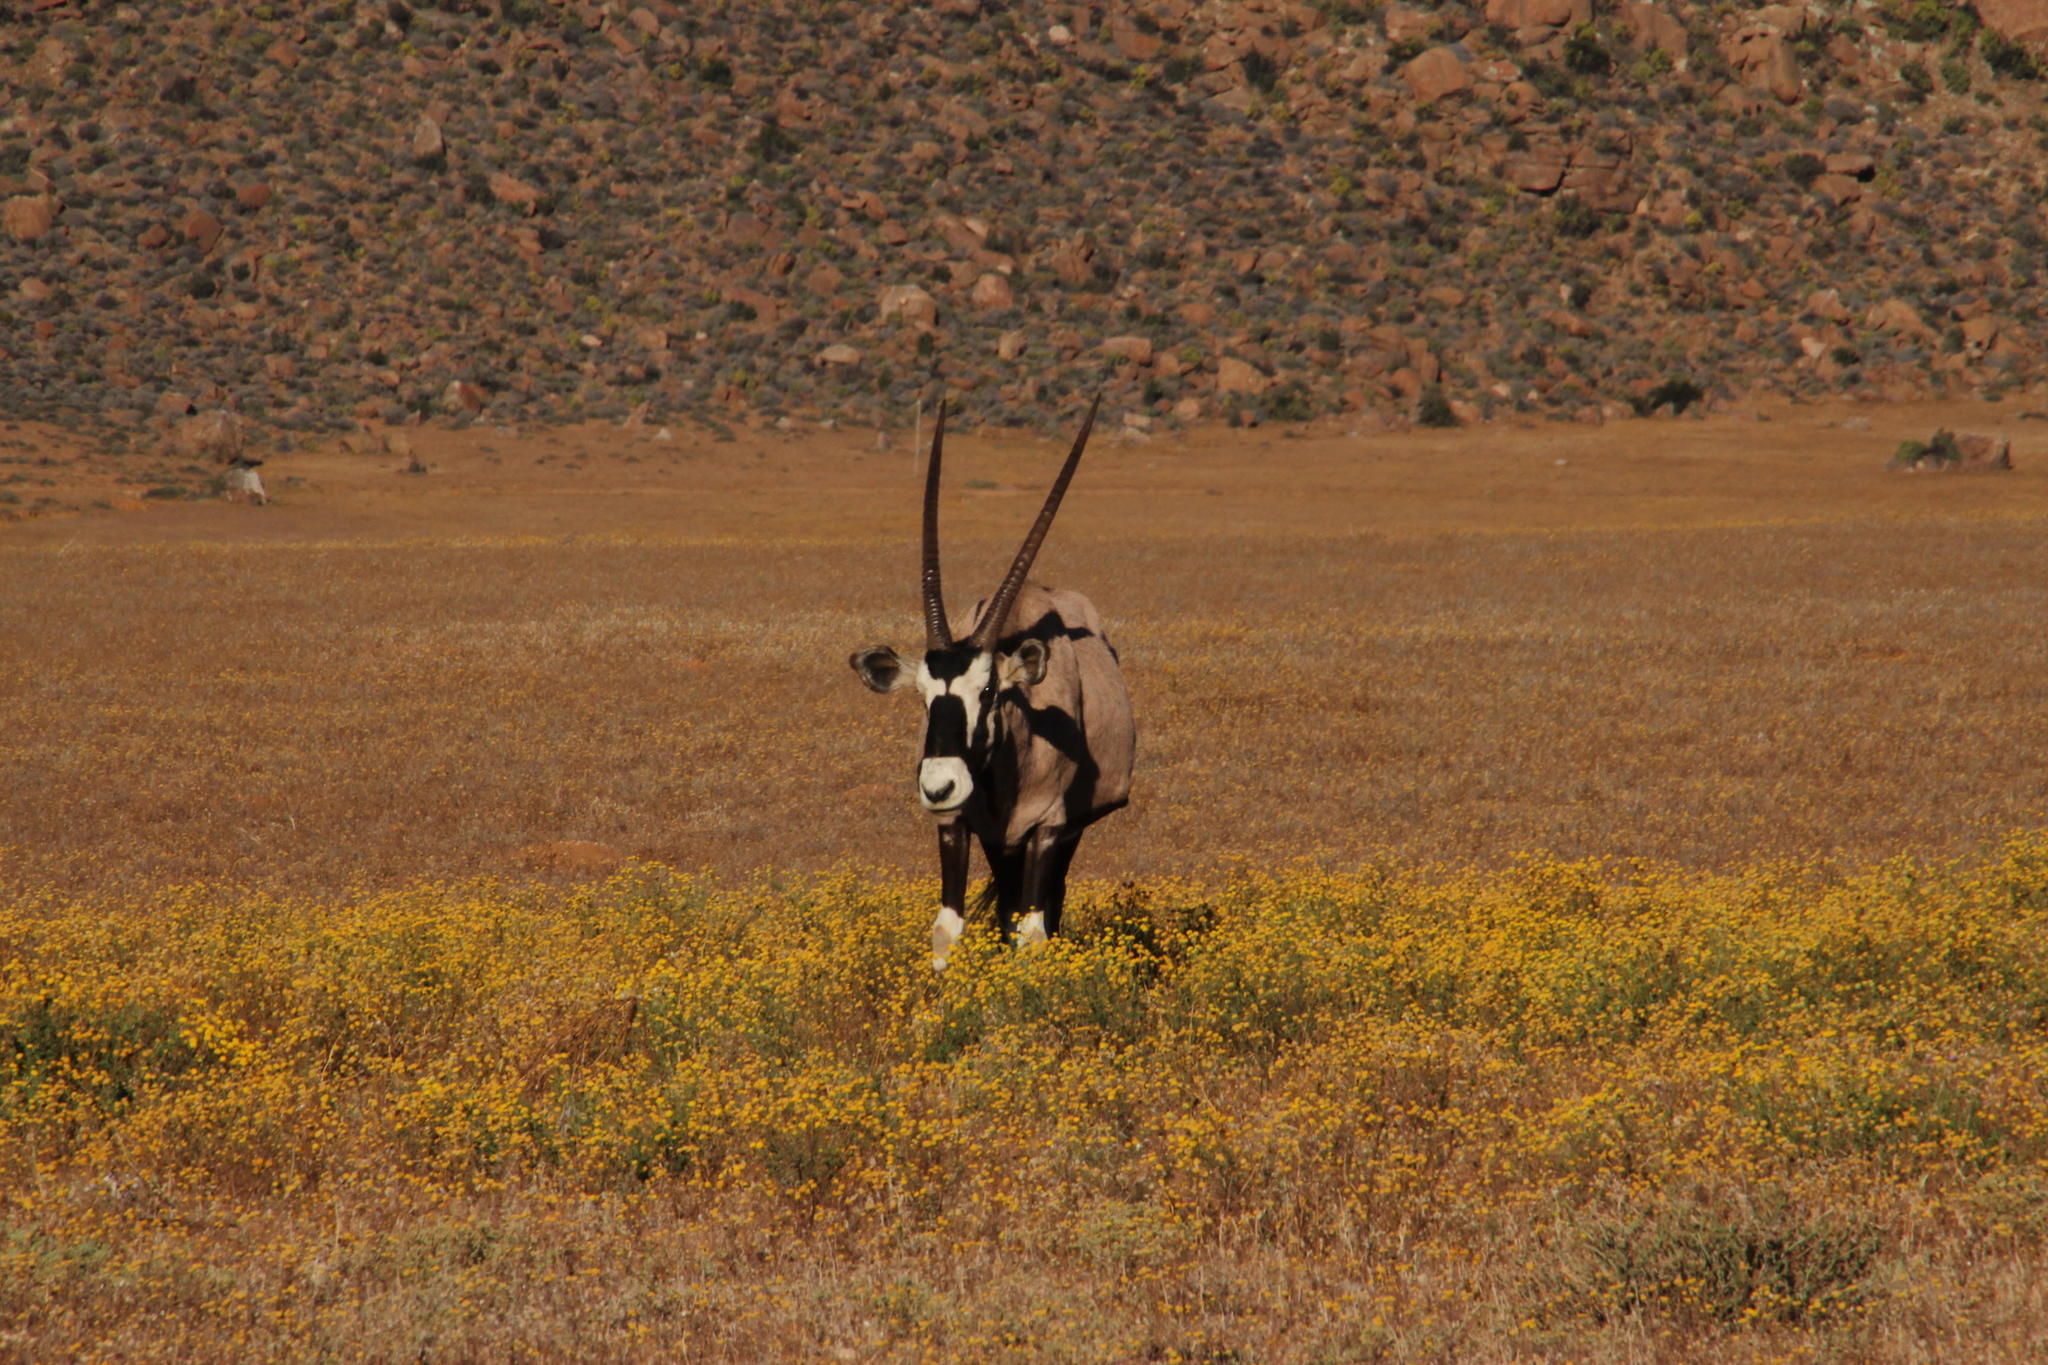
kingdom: Animalia
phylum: Chordata
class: Mammalia
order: Artiodactyla
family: Bovidae
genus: Oryx
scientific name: Oryx gazella
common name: Gemsbok
